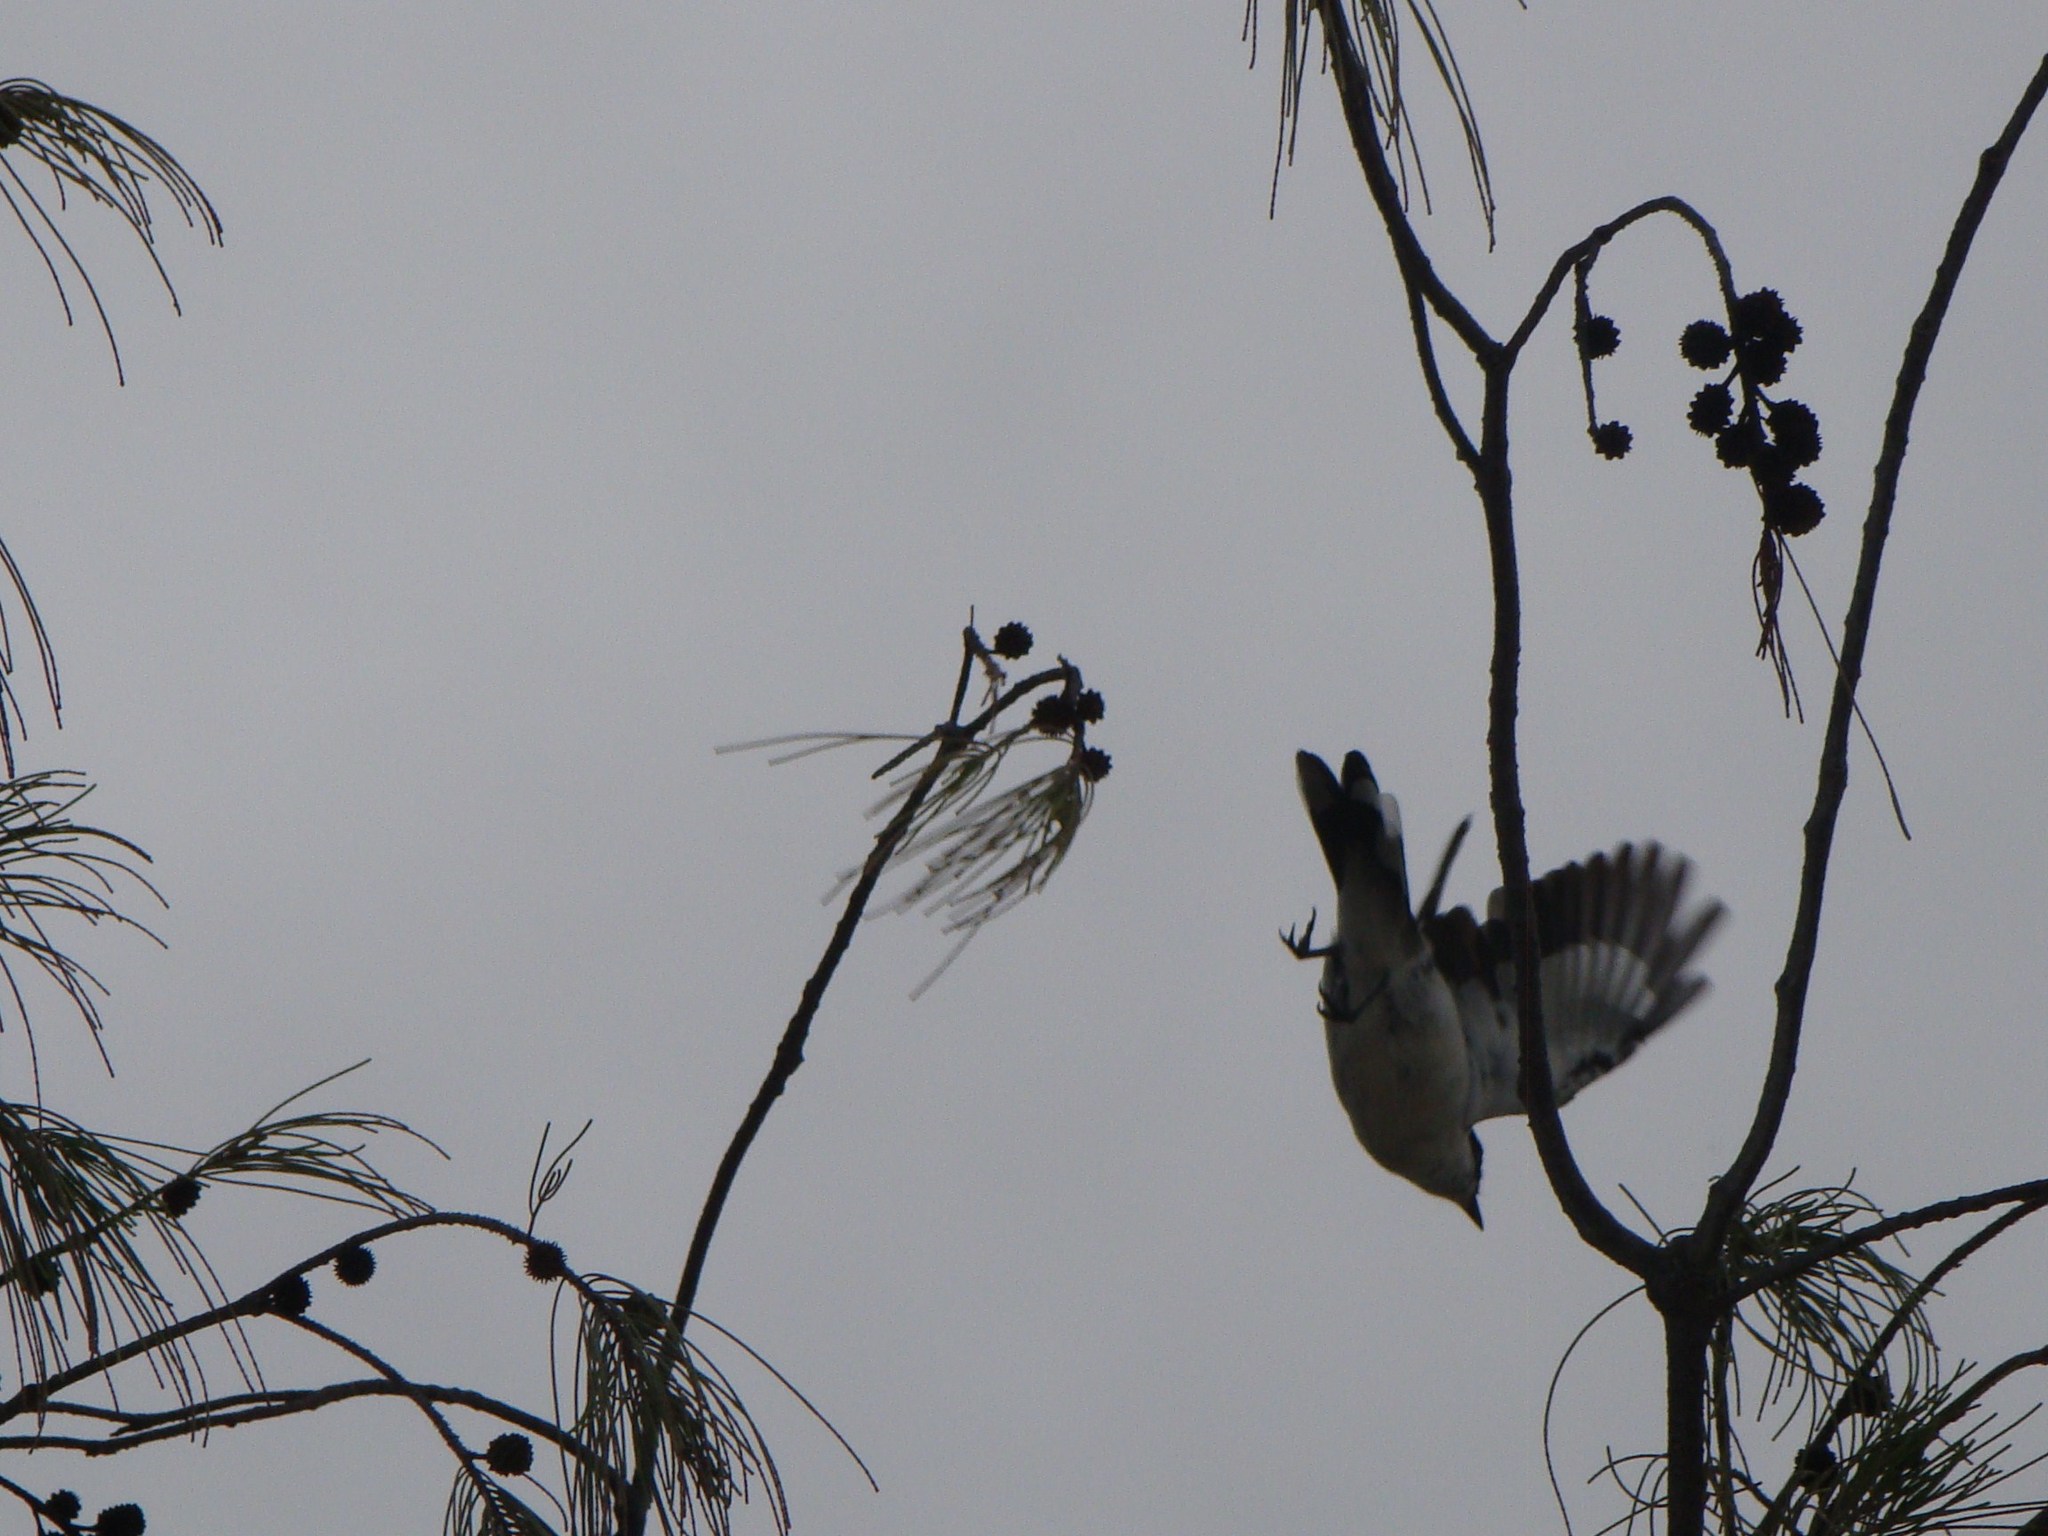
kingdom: Animalia
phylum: Chordata
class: Aves
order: Passeriformes
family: Campephagidae
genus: Lalage
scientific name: Lalage leucopyga
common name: Long-tailed triller
